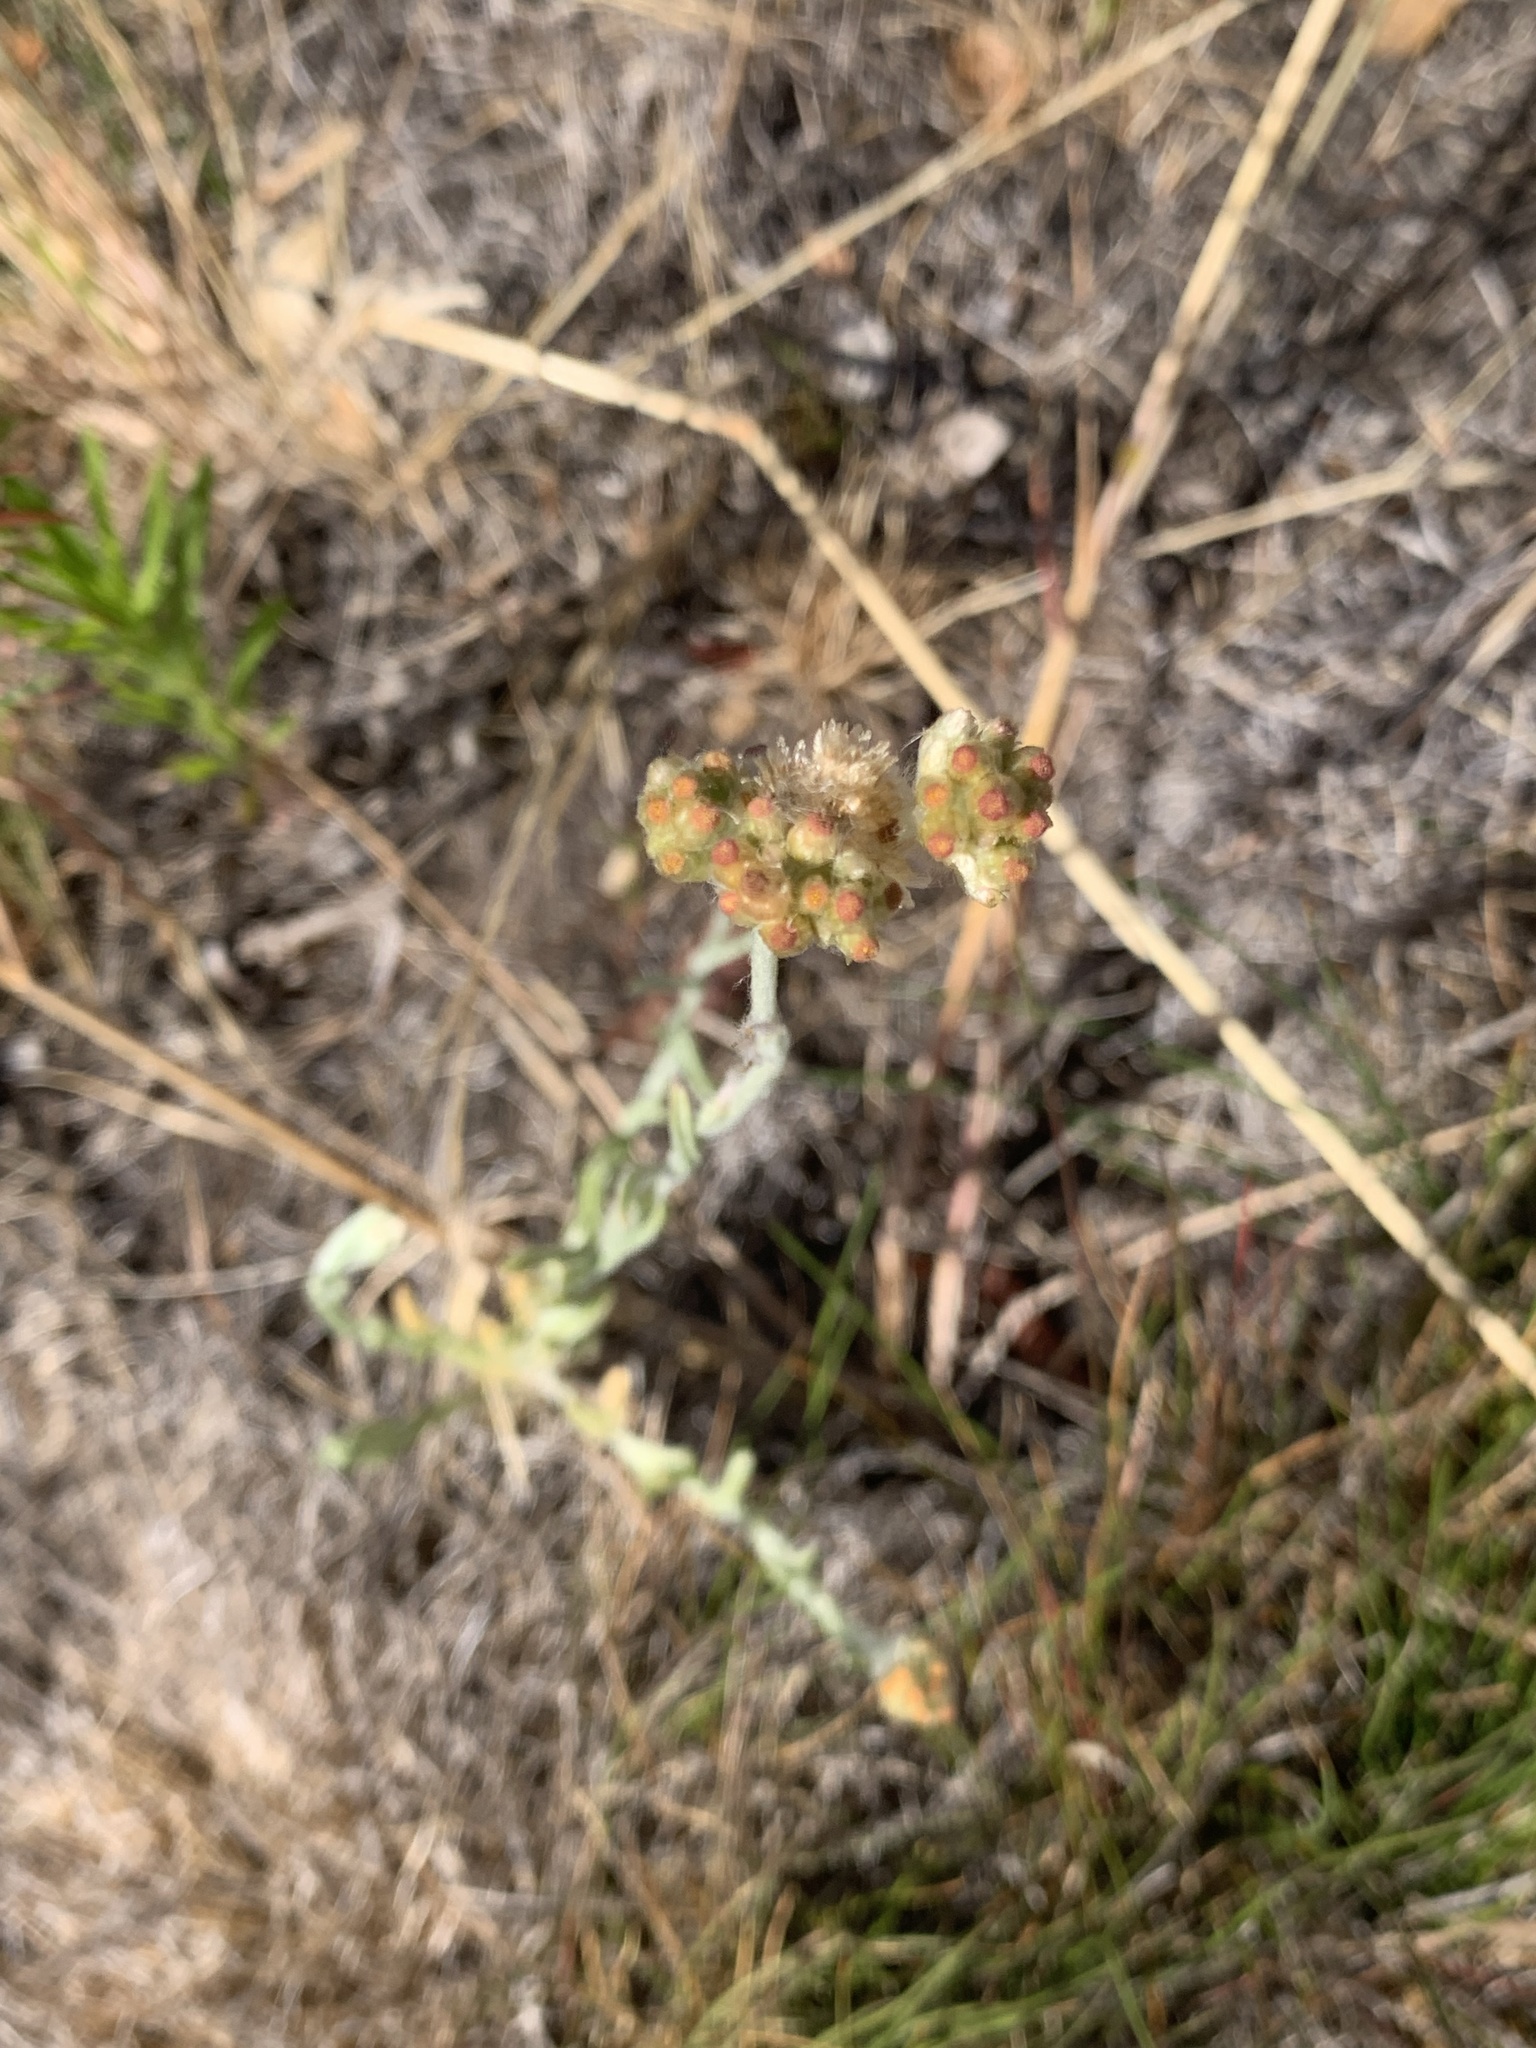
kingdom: Plantae
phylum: Tracheophyta
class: Magnoliopsida
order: Asterales
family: Asteraceae
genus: Helichrysum
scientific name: Helichrysum luteoalbum
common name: Daisy
